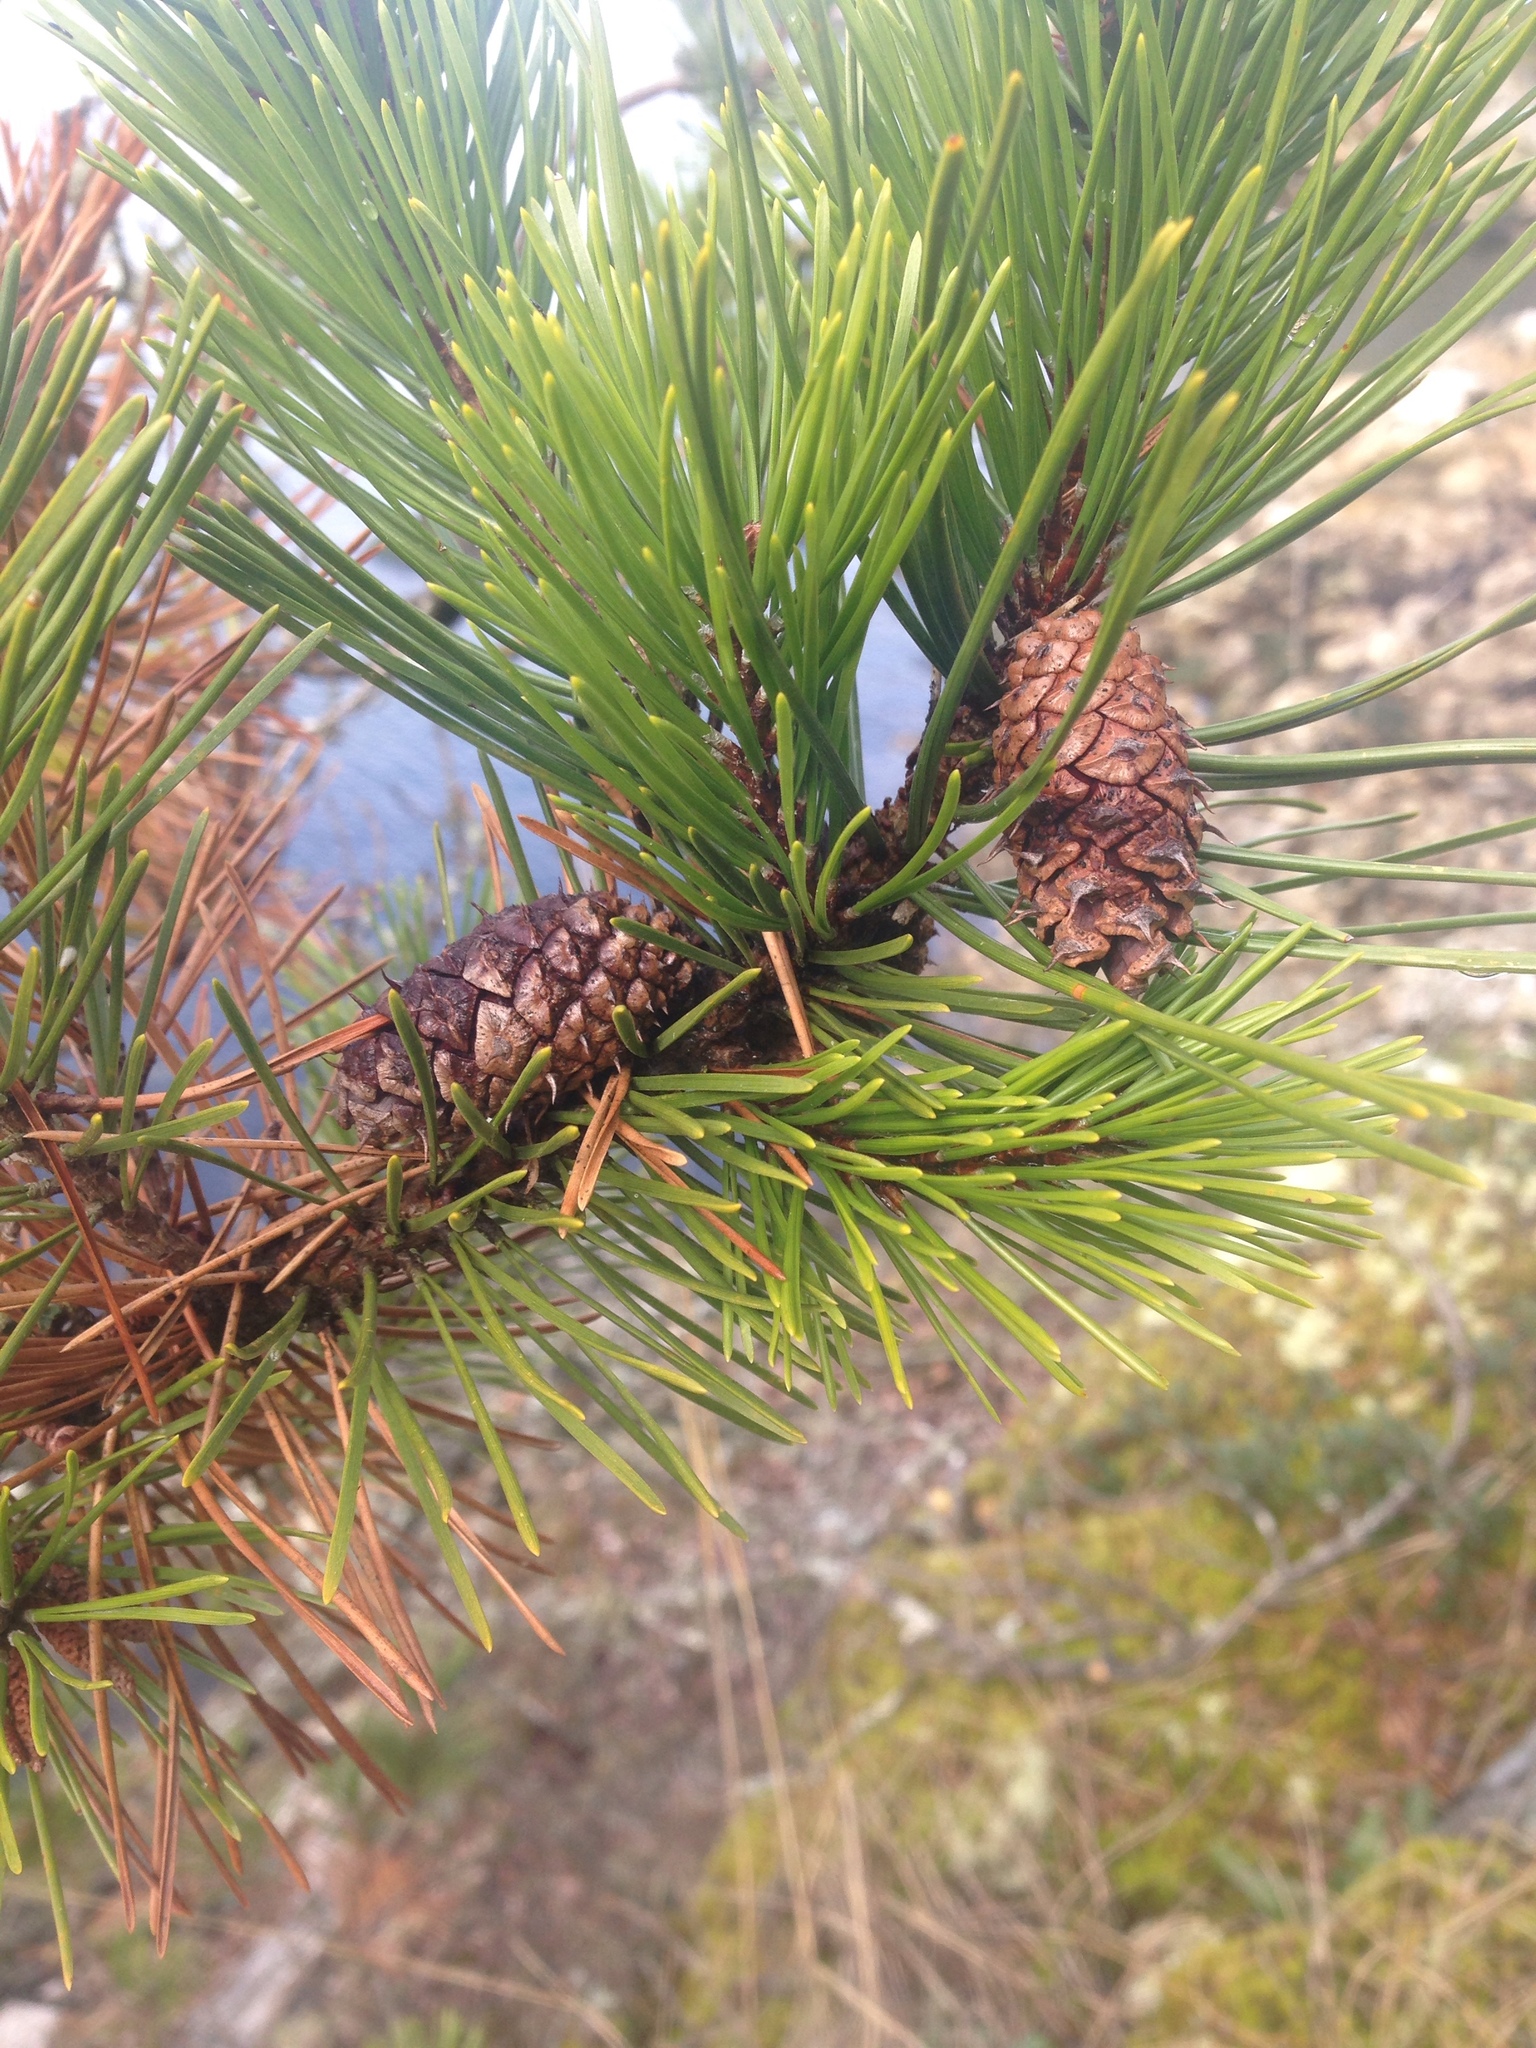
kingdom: Plantae
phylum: Tracheophyta
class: Pinopsida
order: Pinales
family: Pinaceae
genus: Pinus
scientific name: Pinus contorta
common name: Lodgepole pine
